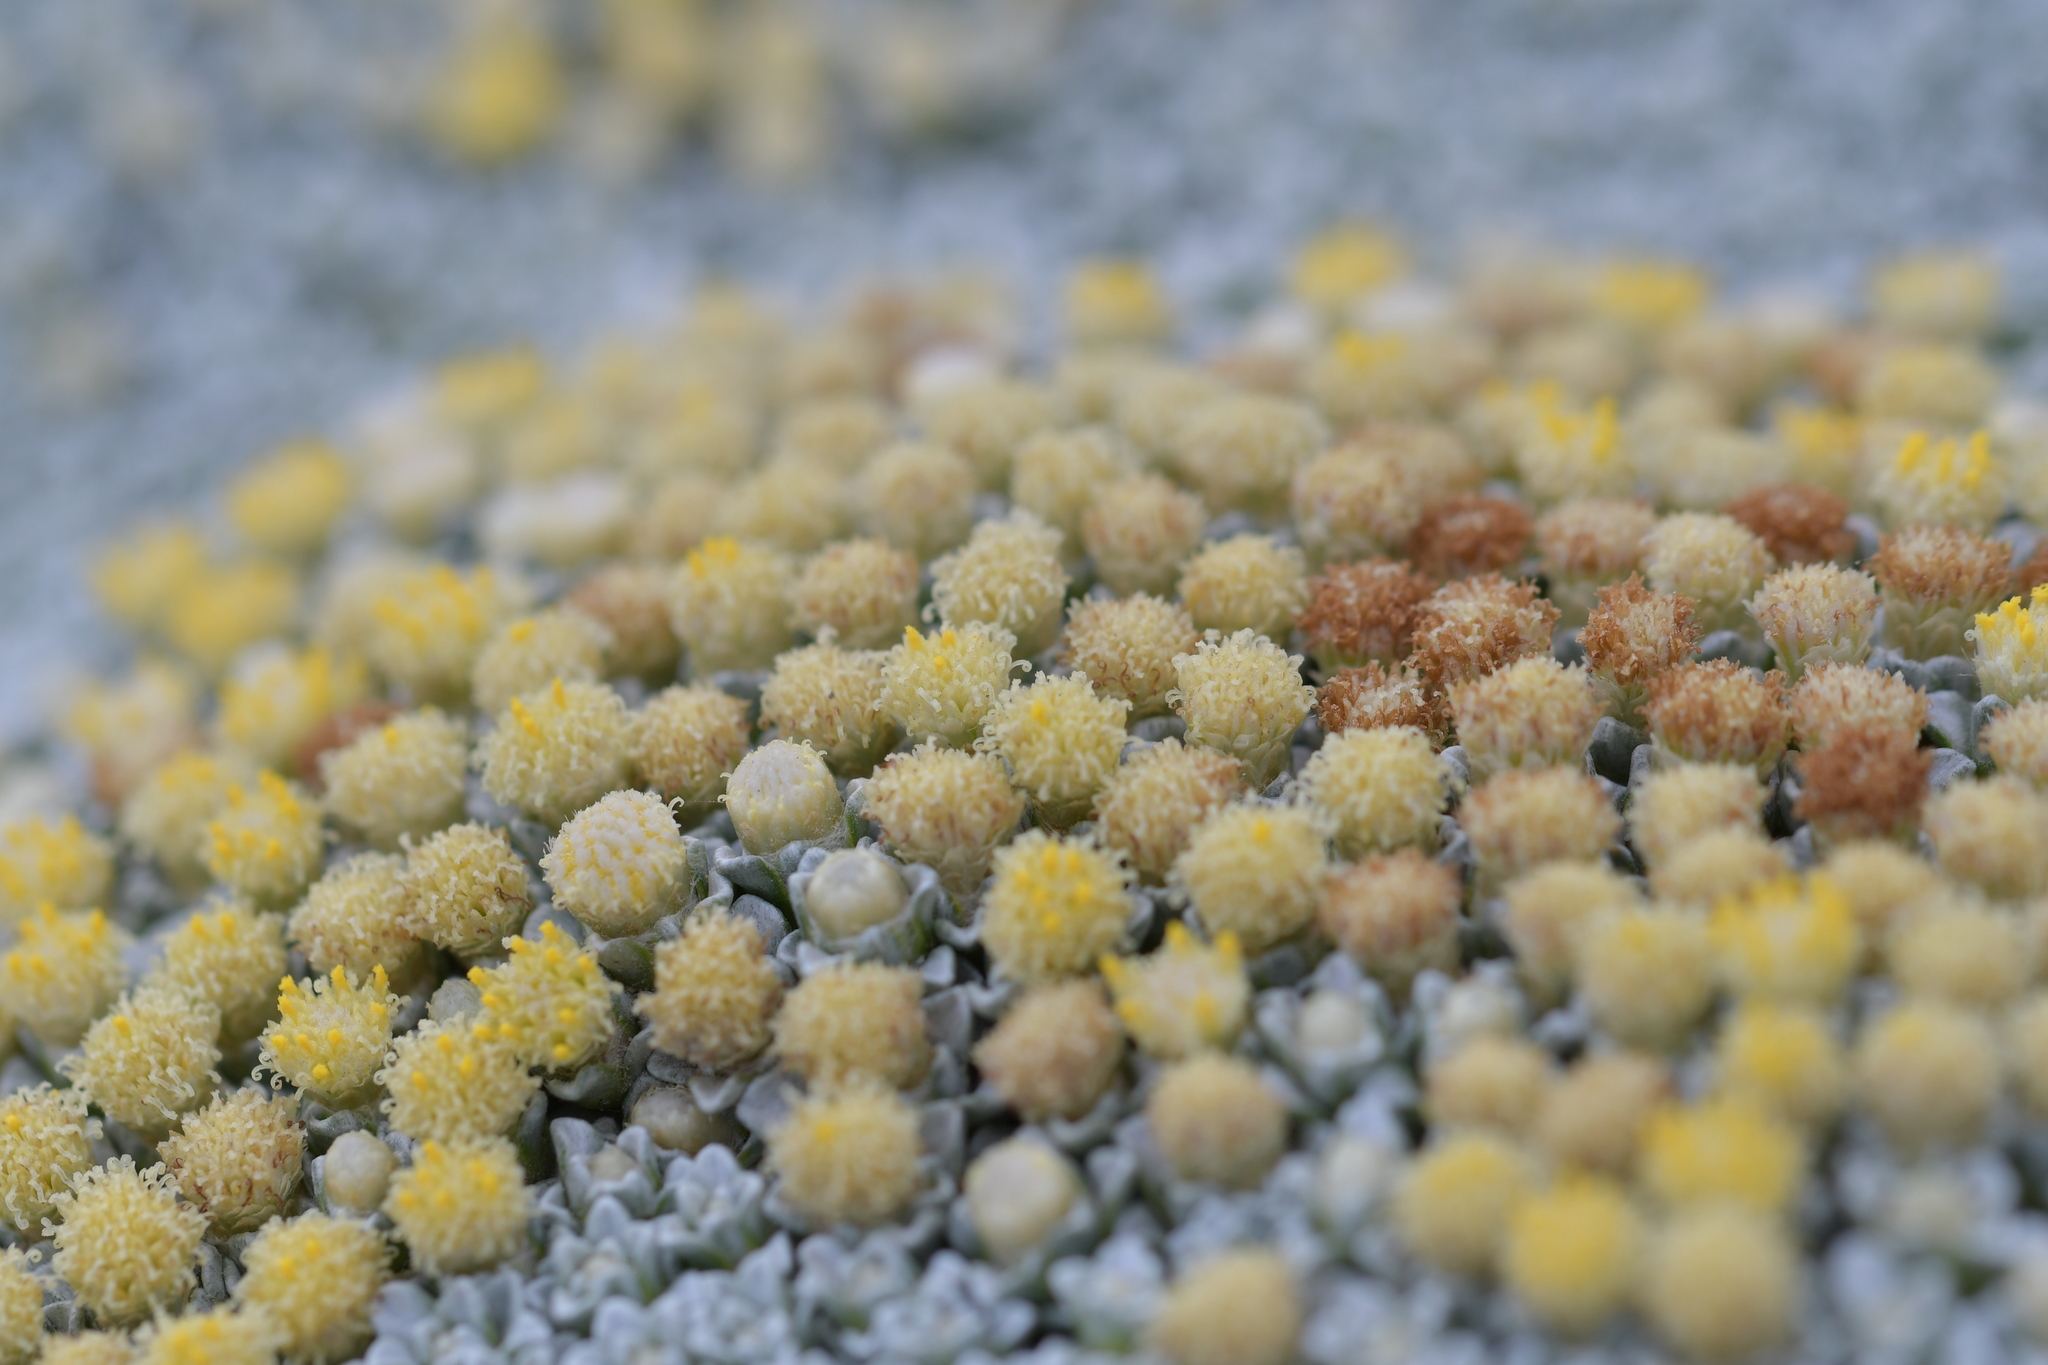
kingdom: Plantae
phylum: Tracheophyta
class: Magnoliopsida
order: Asterales
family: Asteraceae
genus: Raoulia
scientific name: Raoulia hookeri
